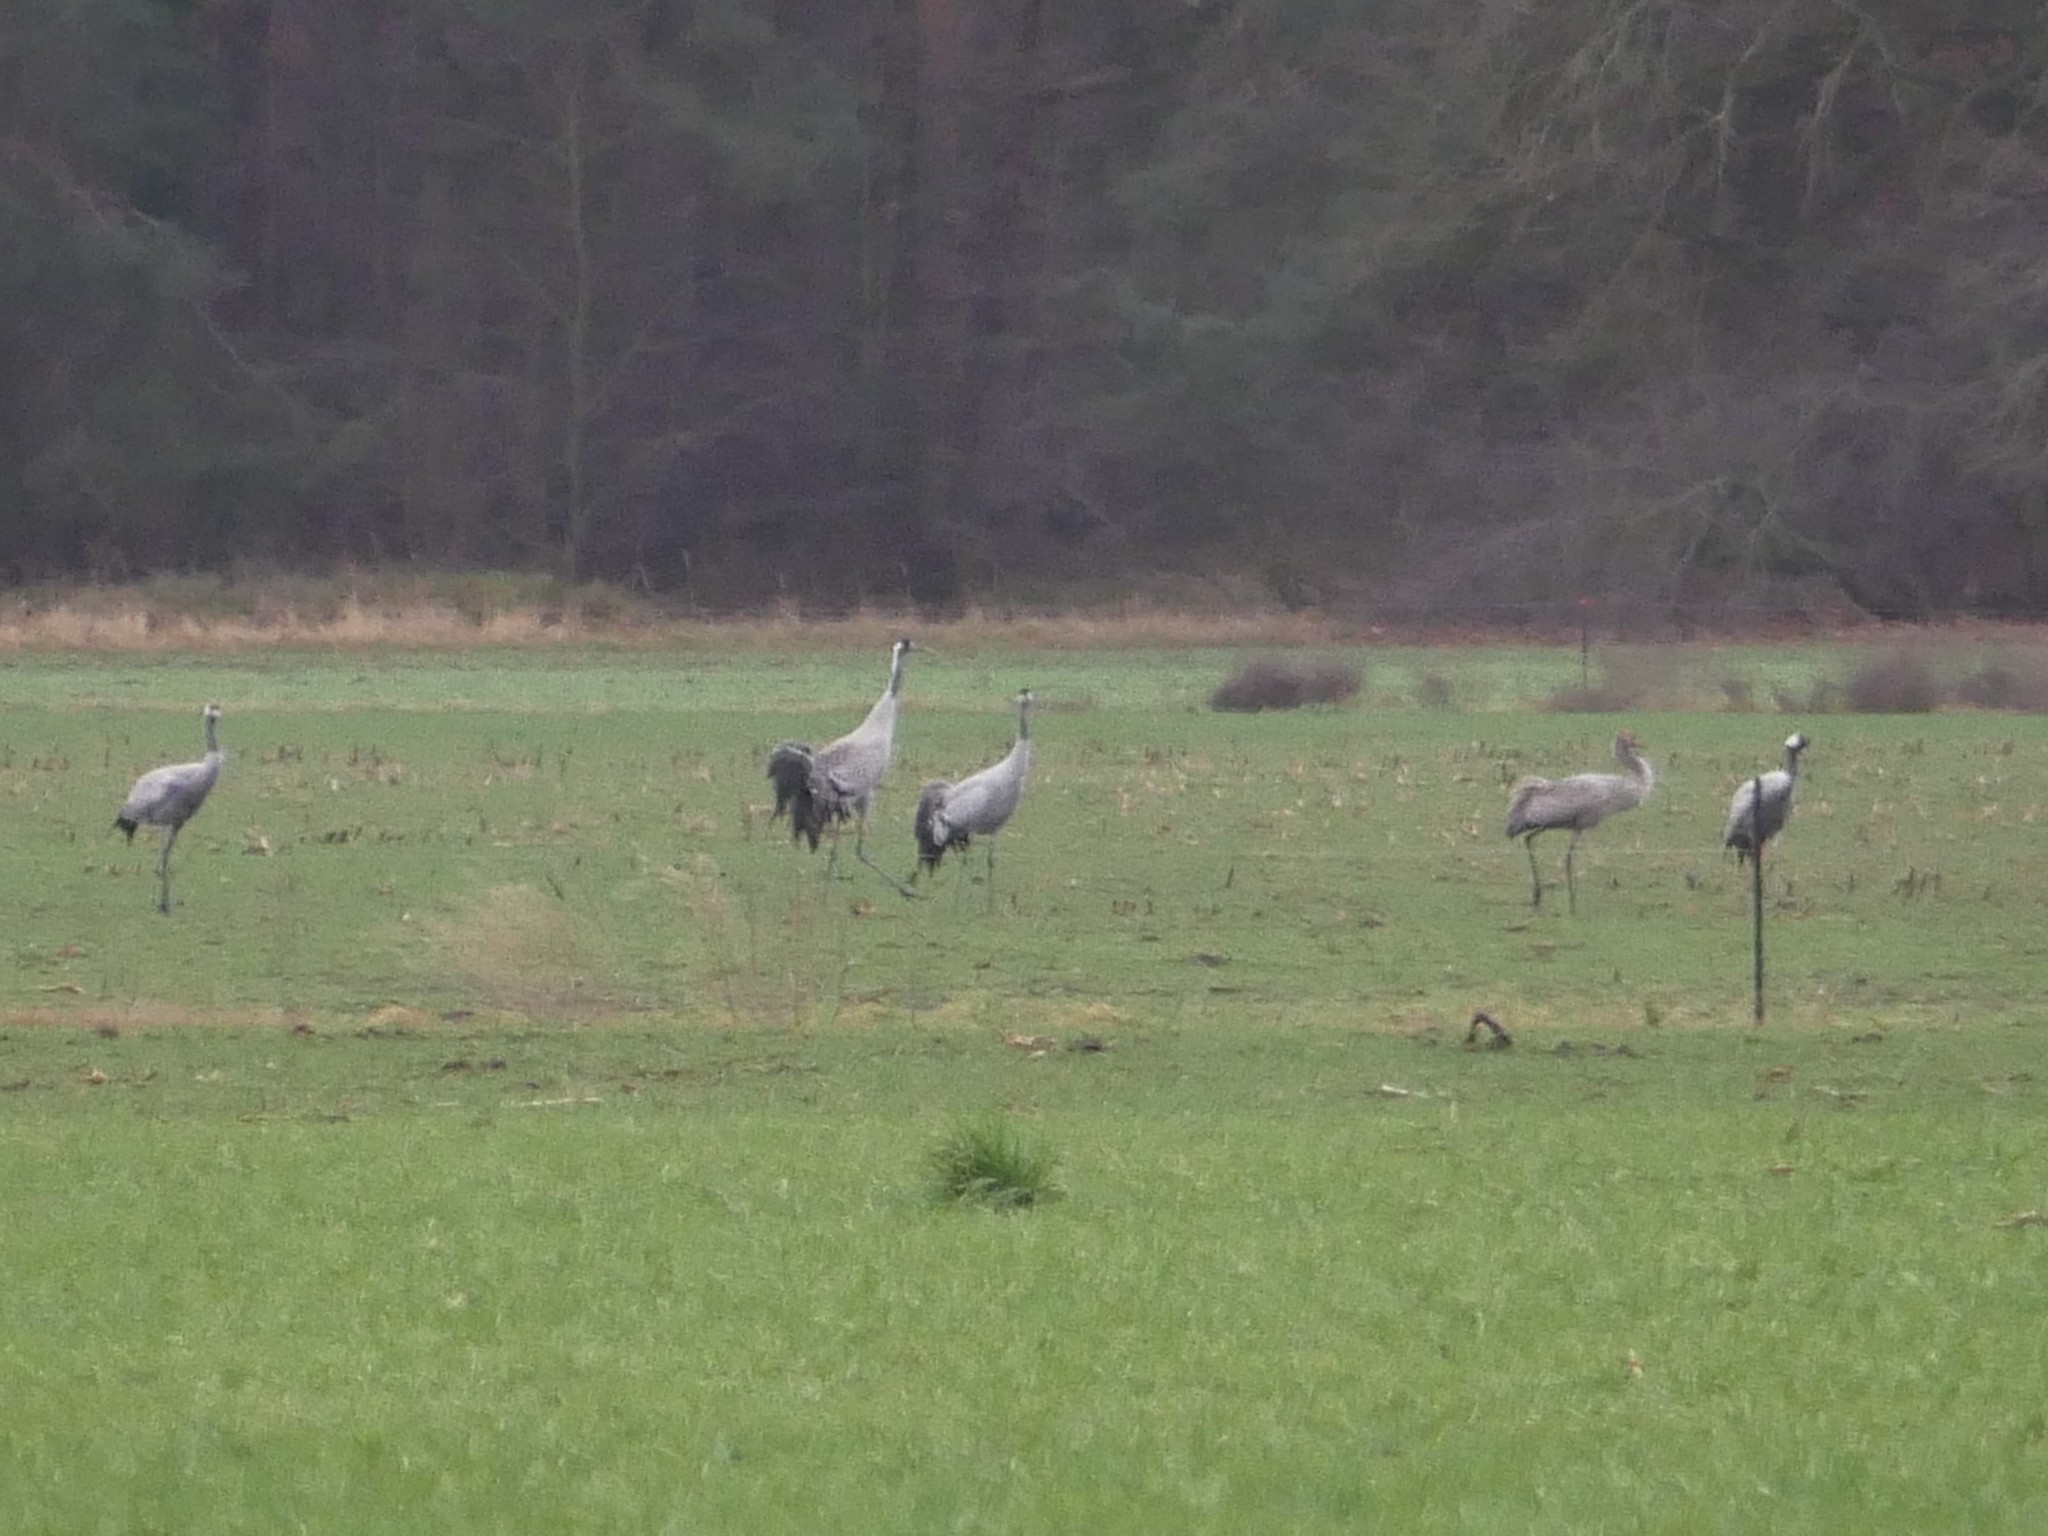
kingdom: Animalia
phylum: Chordata
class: Aves
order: Gruiformes
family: Gruidae
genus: Grus
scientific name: Grus grus
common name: Common crane
